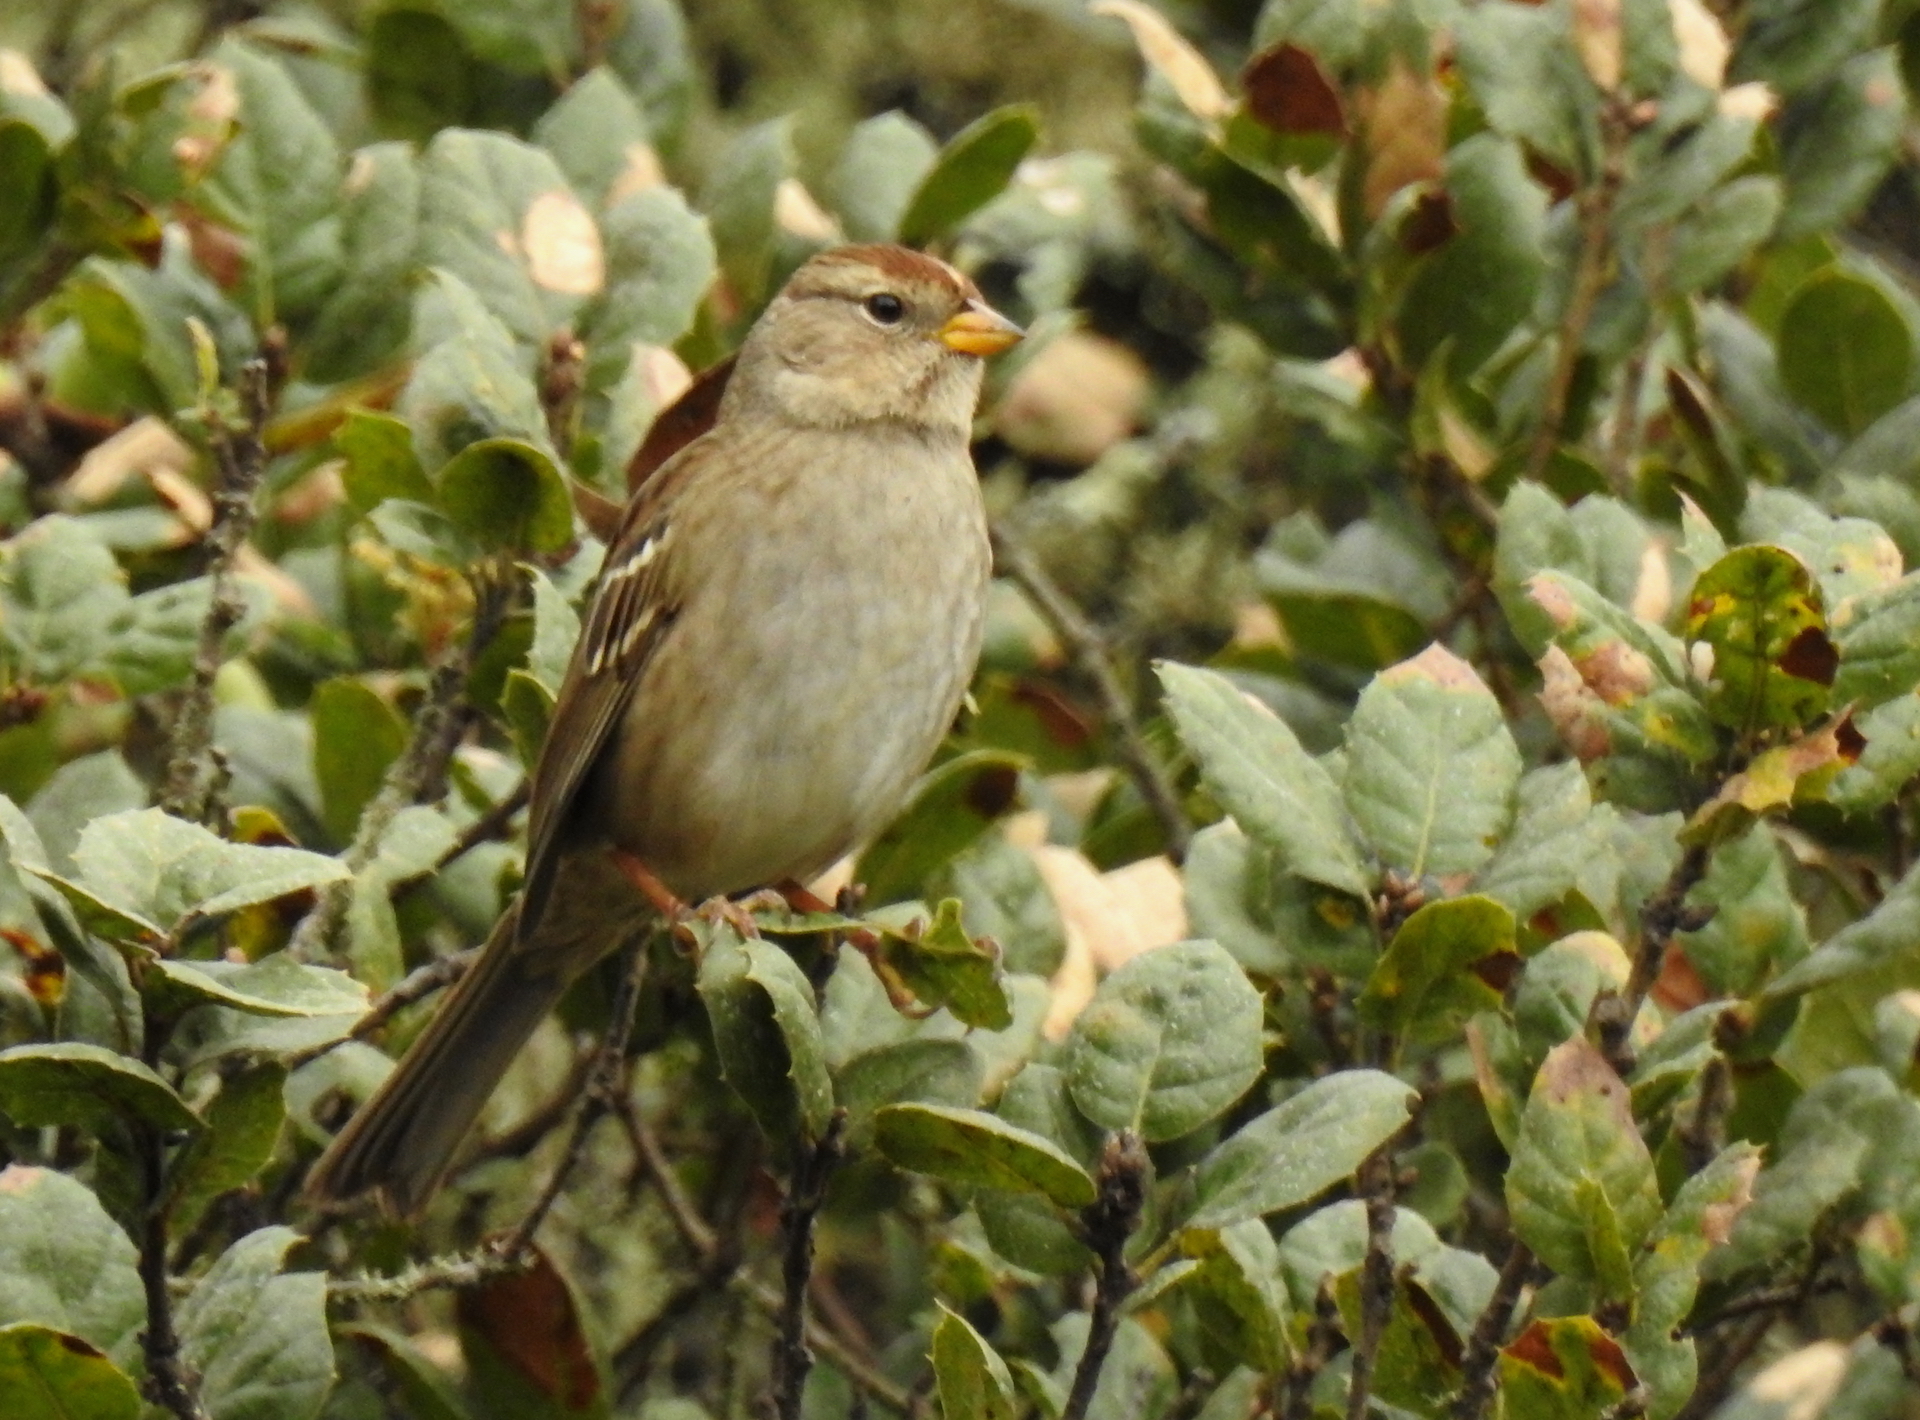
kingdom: Animalia
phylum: Chordata
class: Aves
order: Passeriformes
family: Passerellidae
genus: Zonotrichia
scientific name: Zonotrichia leucophrys
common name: White-crowned sparrow
